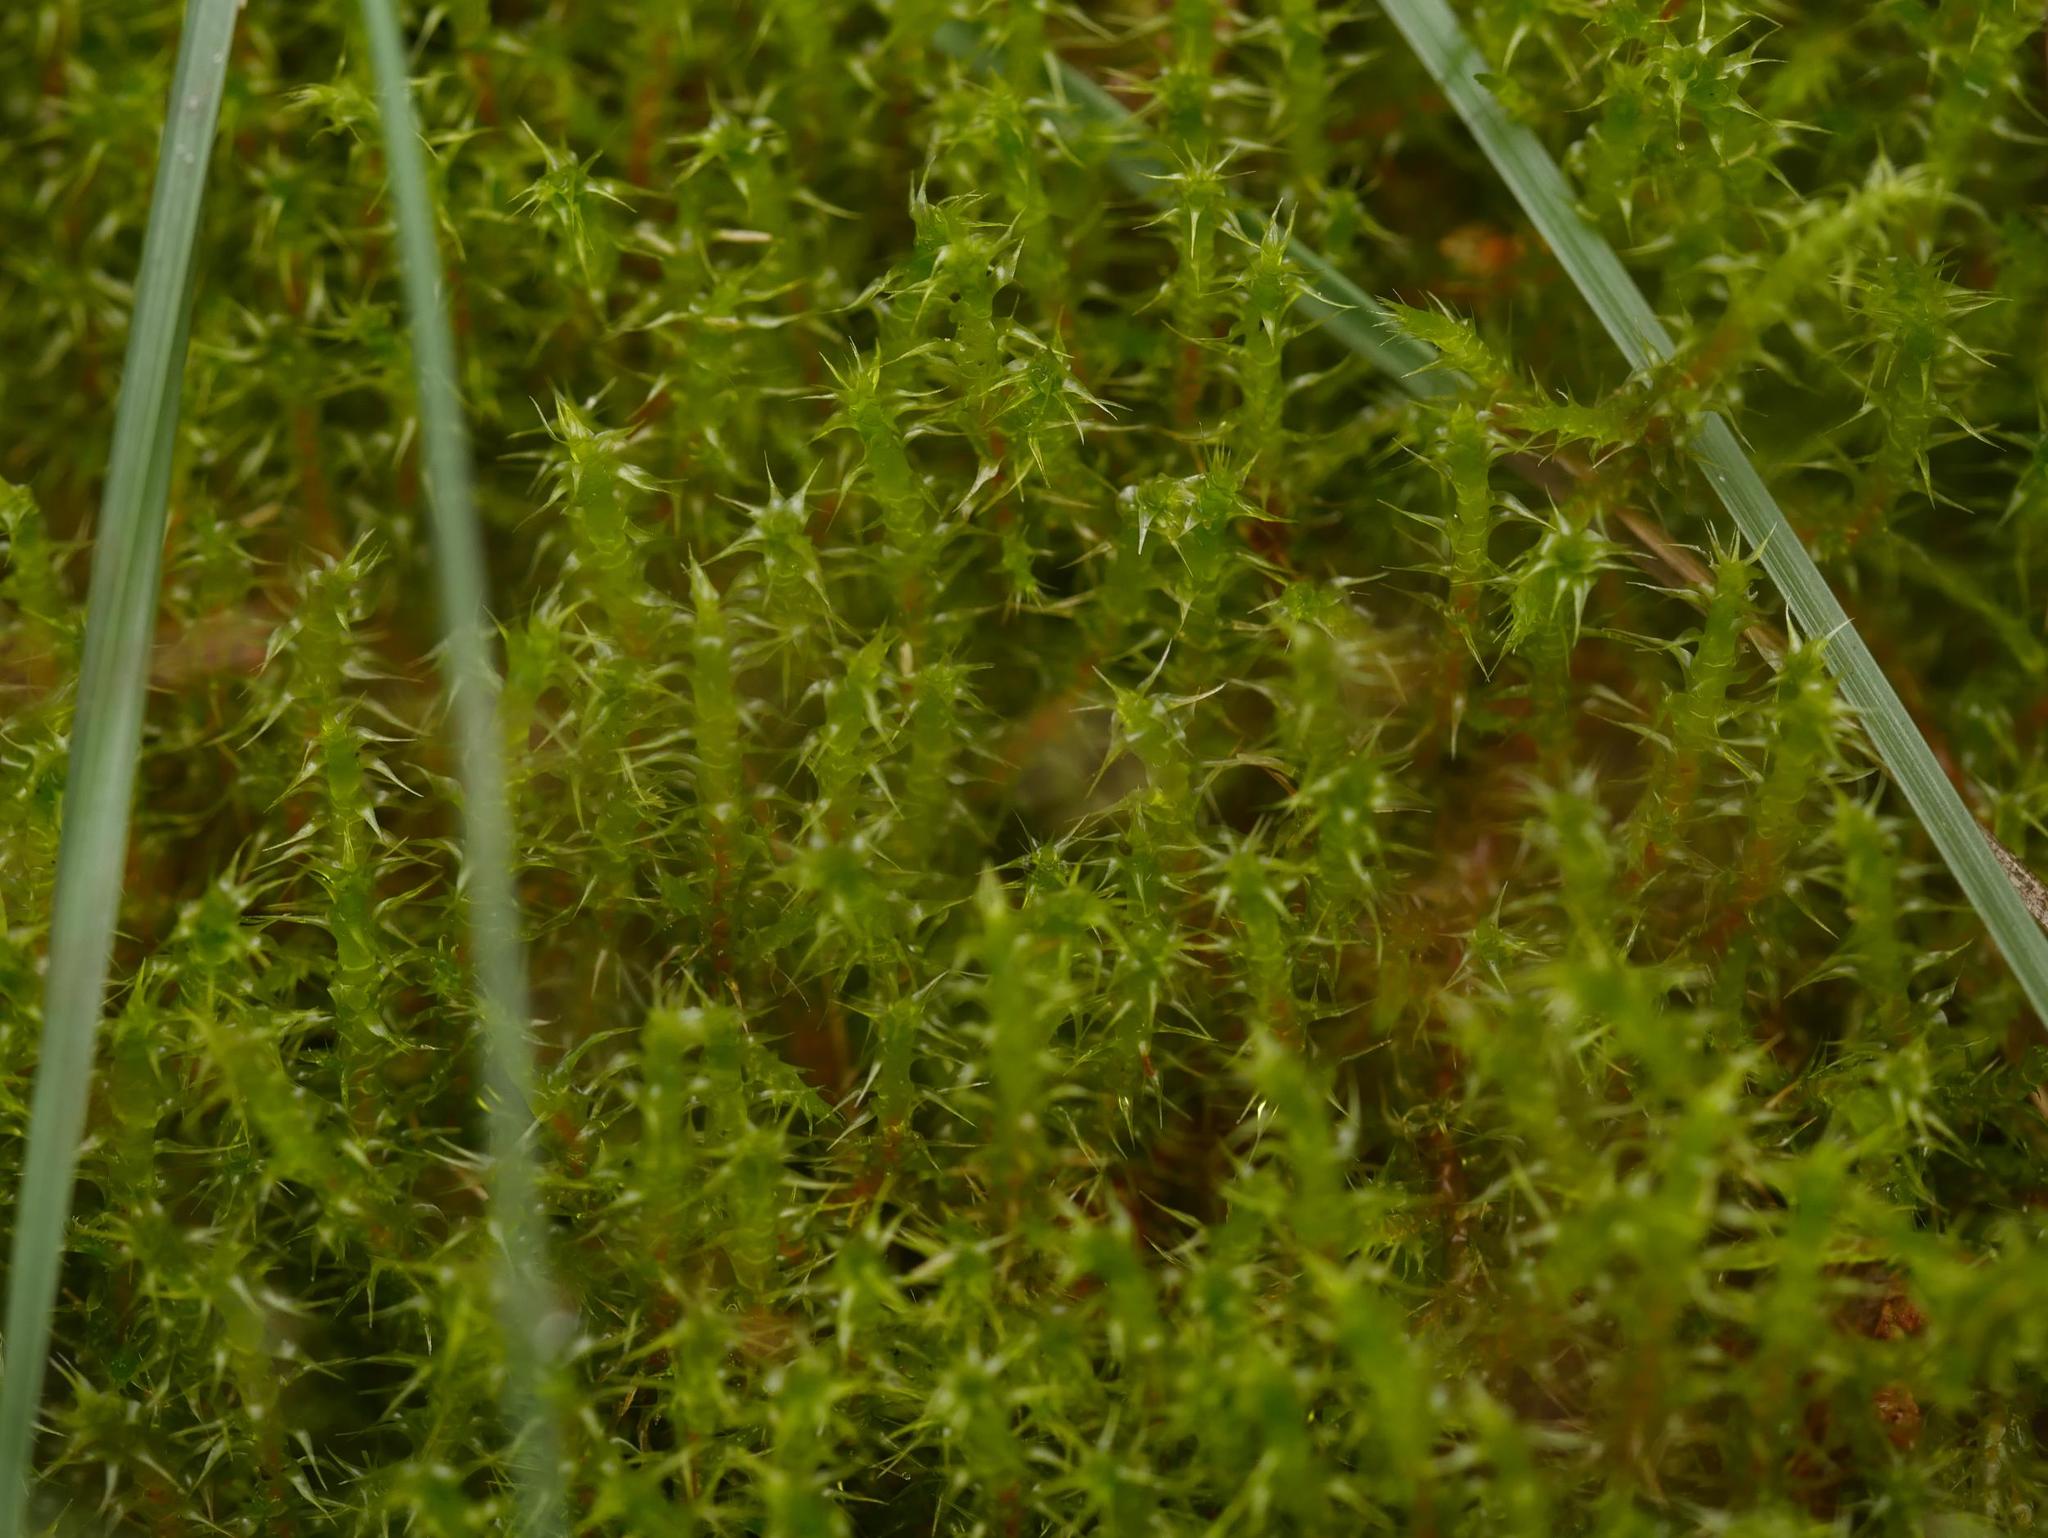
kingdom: Plantae
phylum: Bryophyta
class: Bryopsida
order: Hypnales
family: Hylocomiaceae
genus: Rhytidiadelphus
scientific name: Rhytidiadelphus squarrosus
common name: Springy turf-moss
